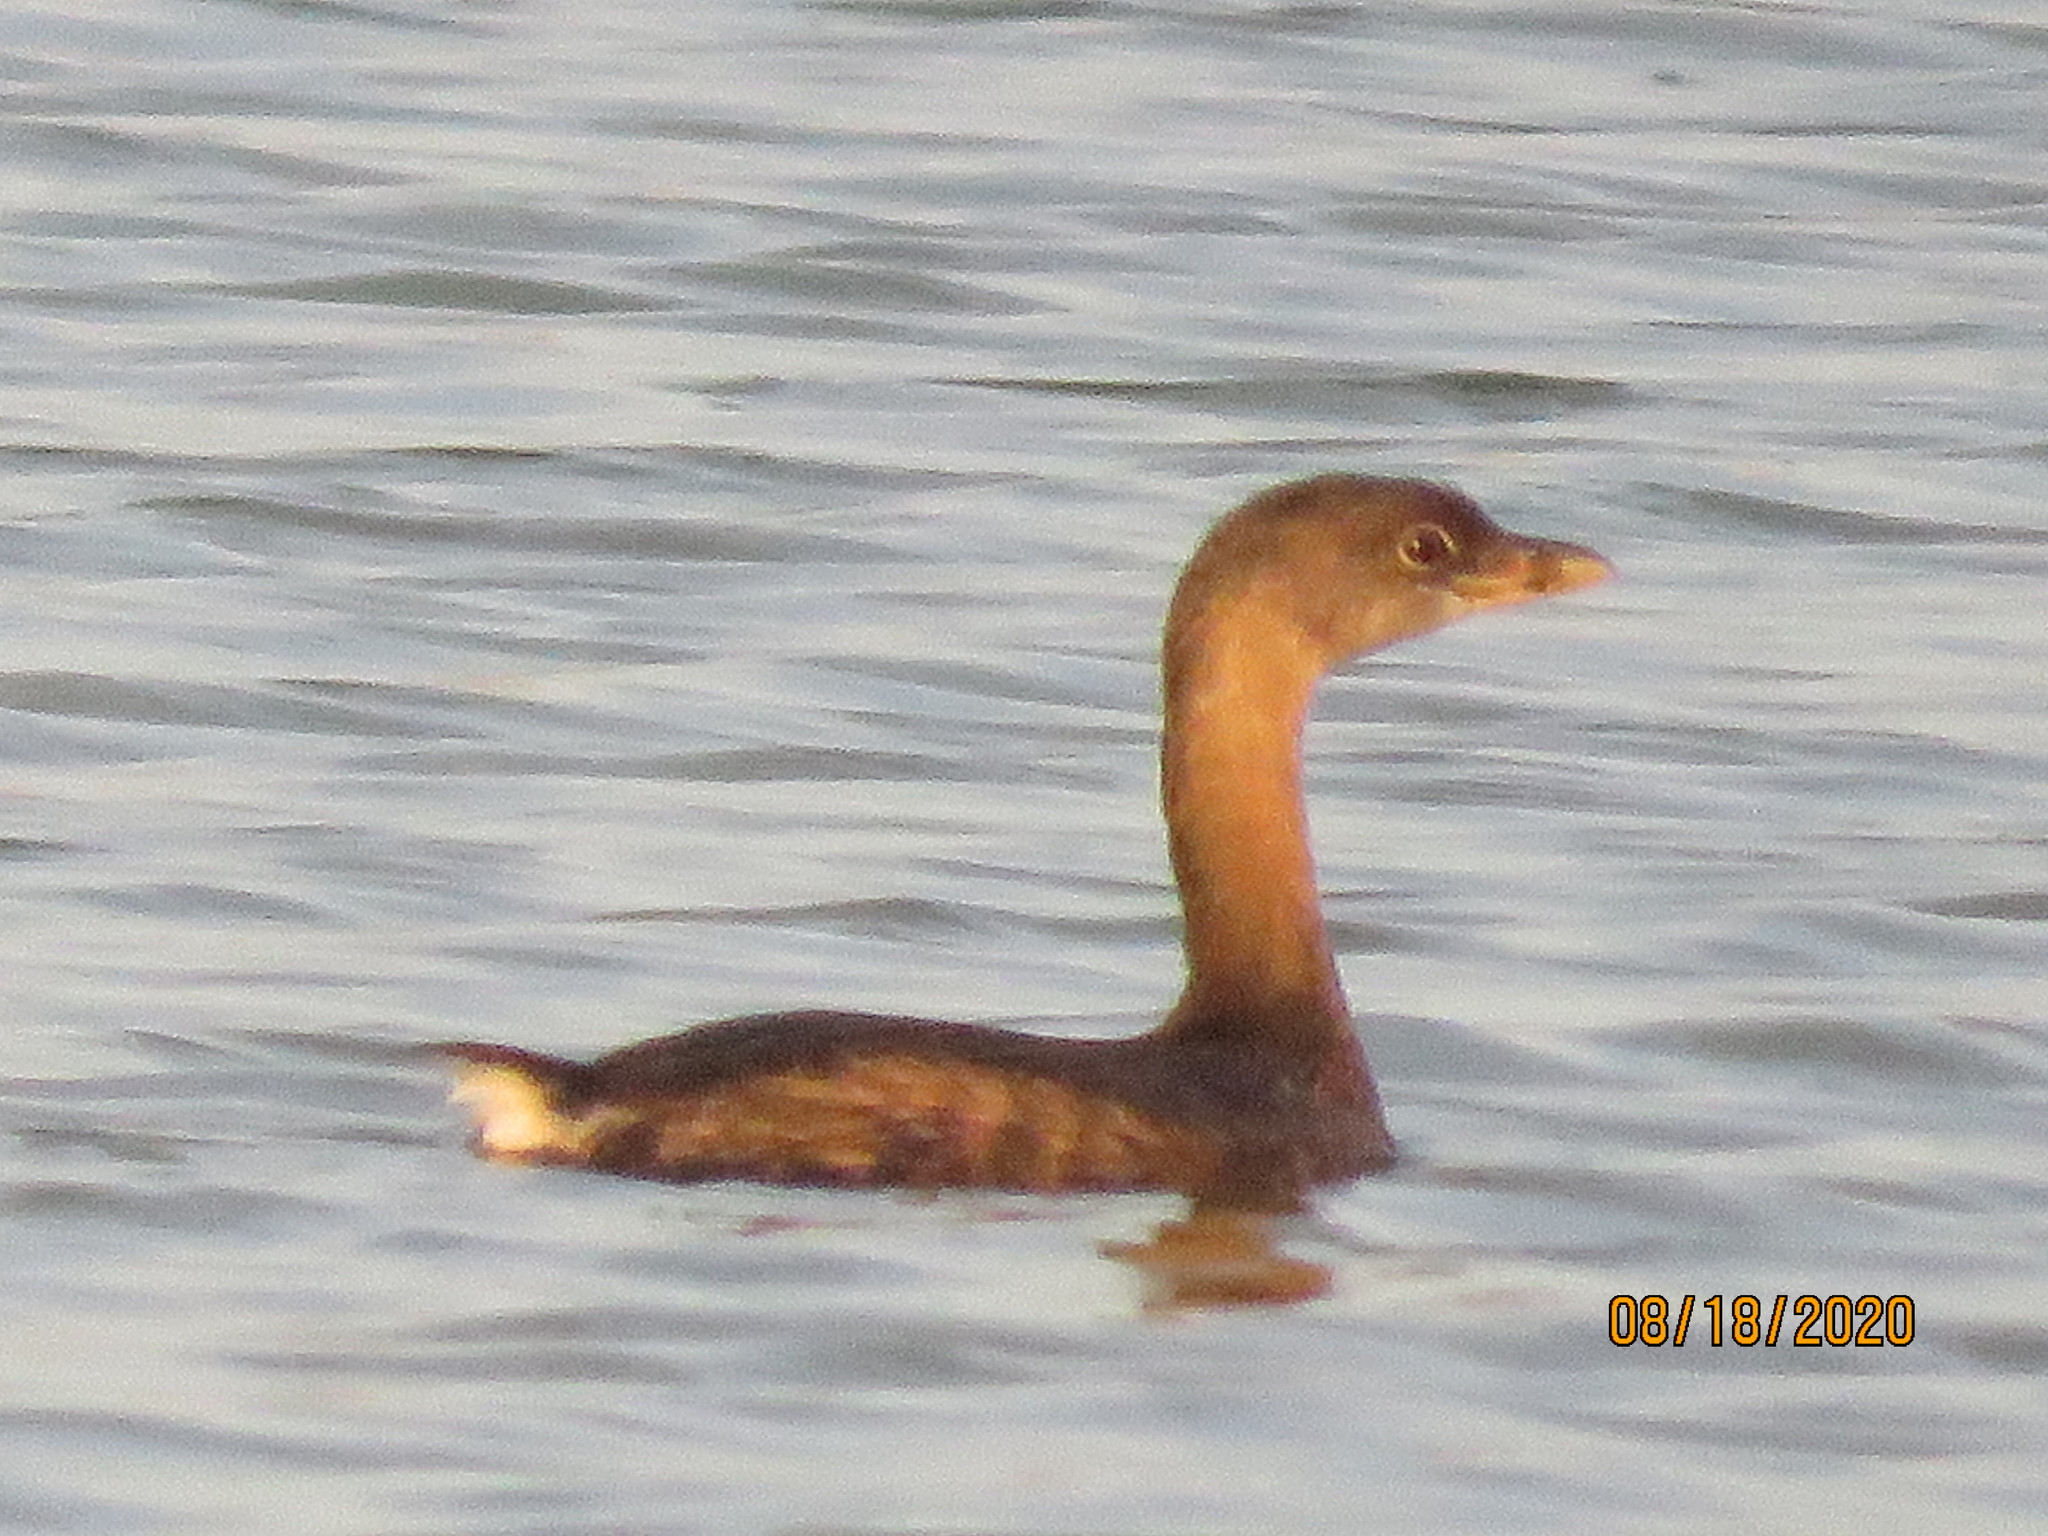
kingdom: Animalia
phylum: Chordata
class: Aves
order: Podicipediformes
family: Podicipedidae
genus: Podilymbus
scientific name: Podilymbus podiceps
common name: Pied-billed grebe
